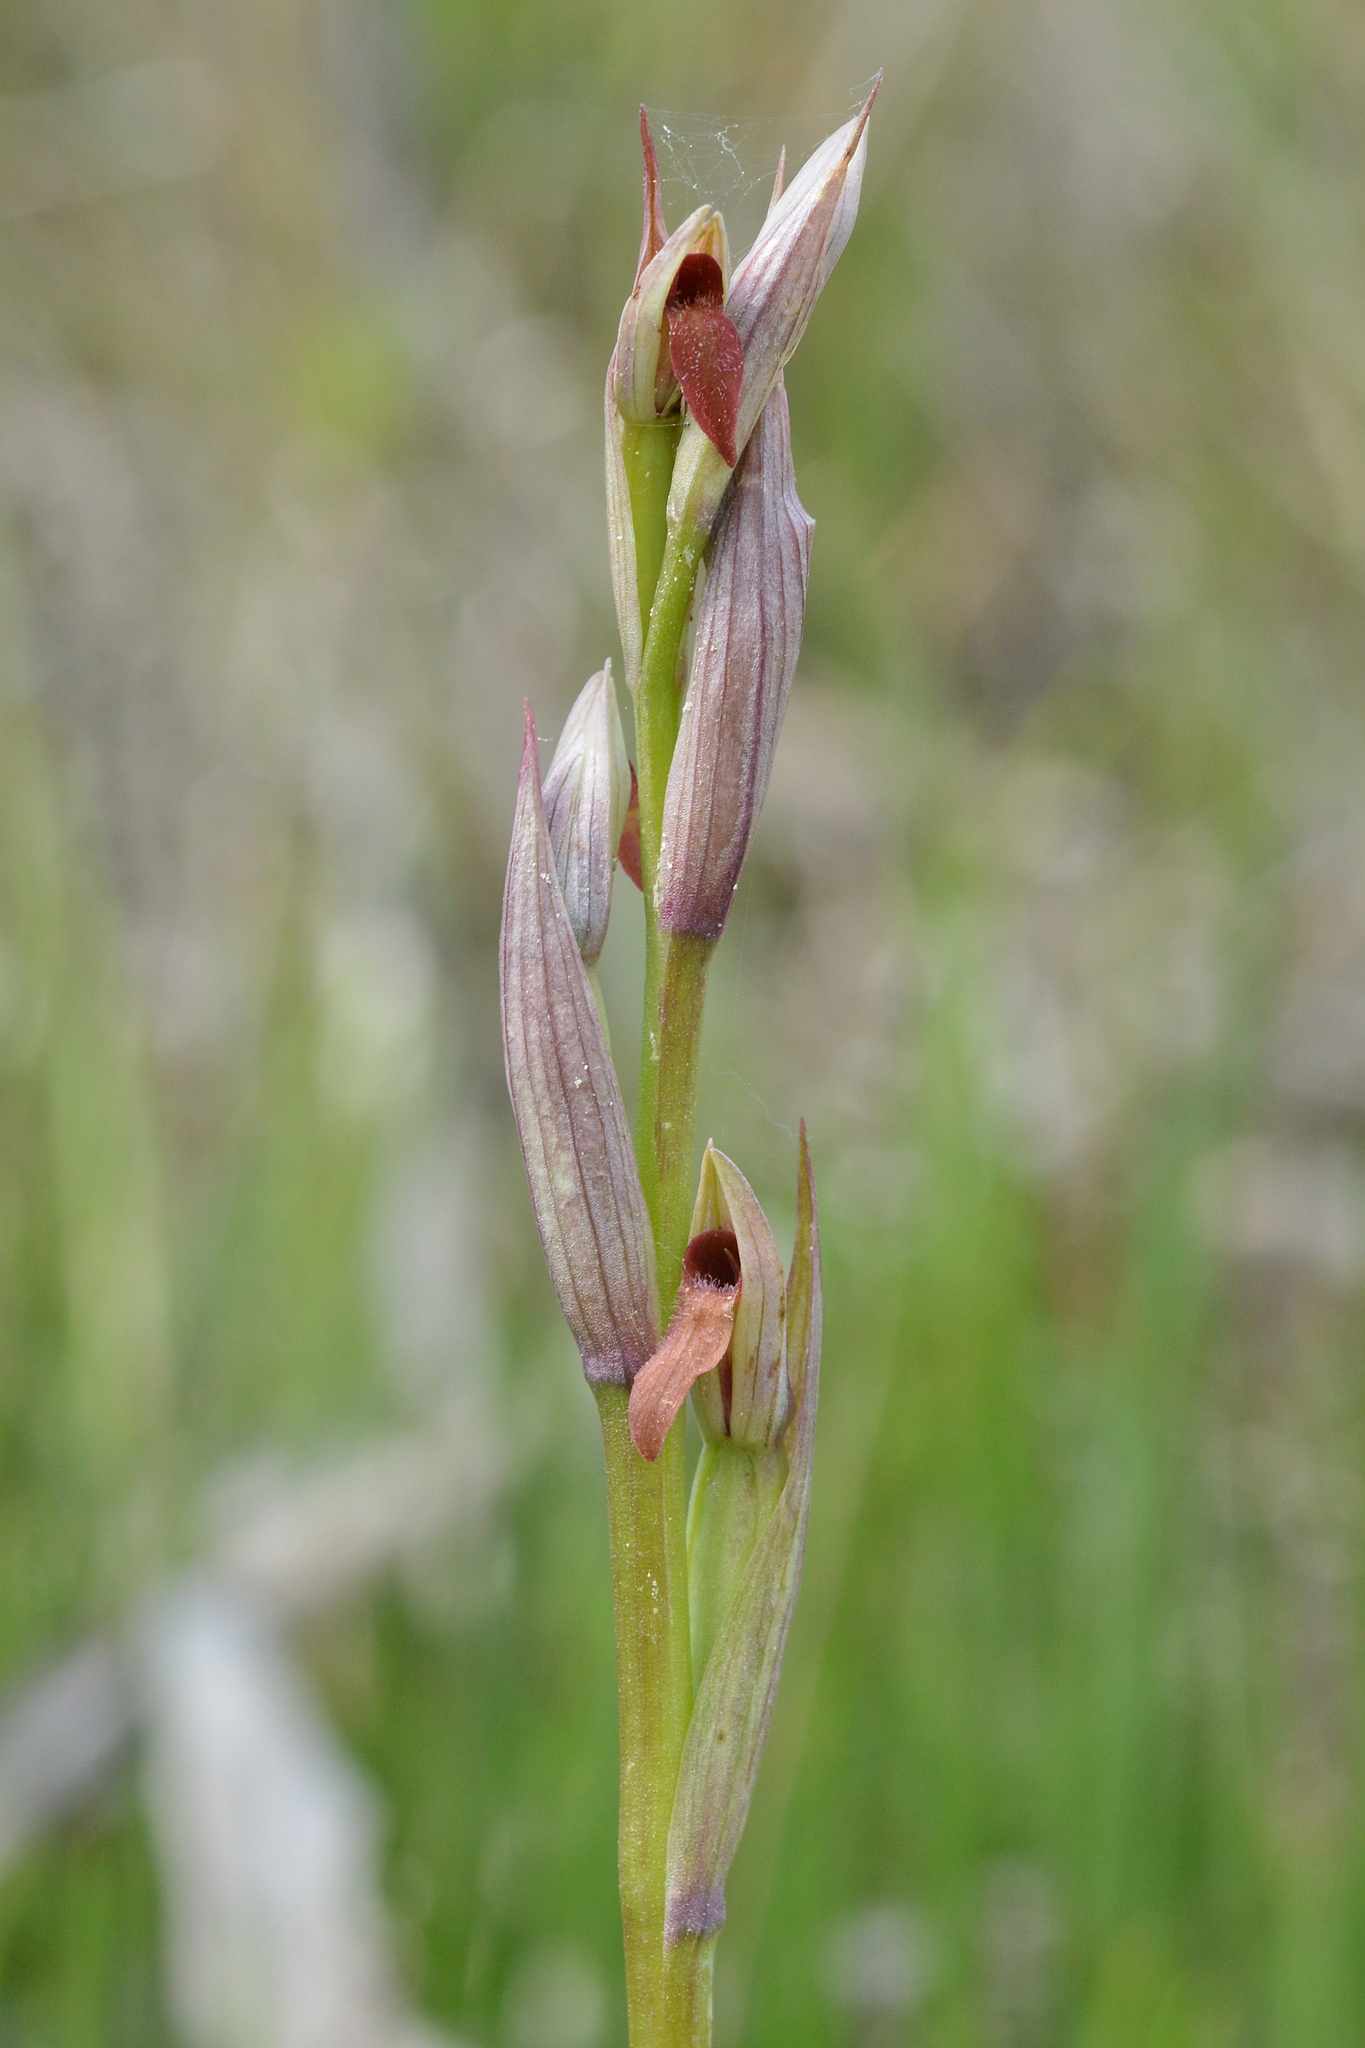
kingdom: Plantae
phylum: Tracheophyta
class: Liliopsida
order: Asparagales
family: Orchidaceae
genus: Serapias
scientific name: Serapias parviflora
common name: Small-flowered tongue-orchid
